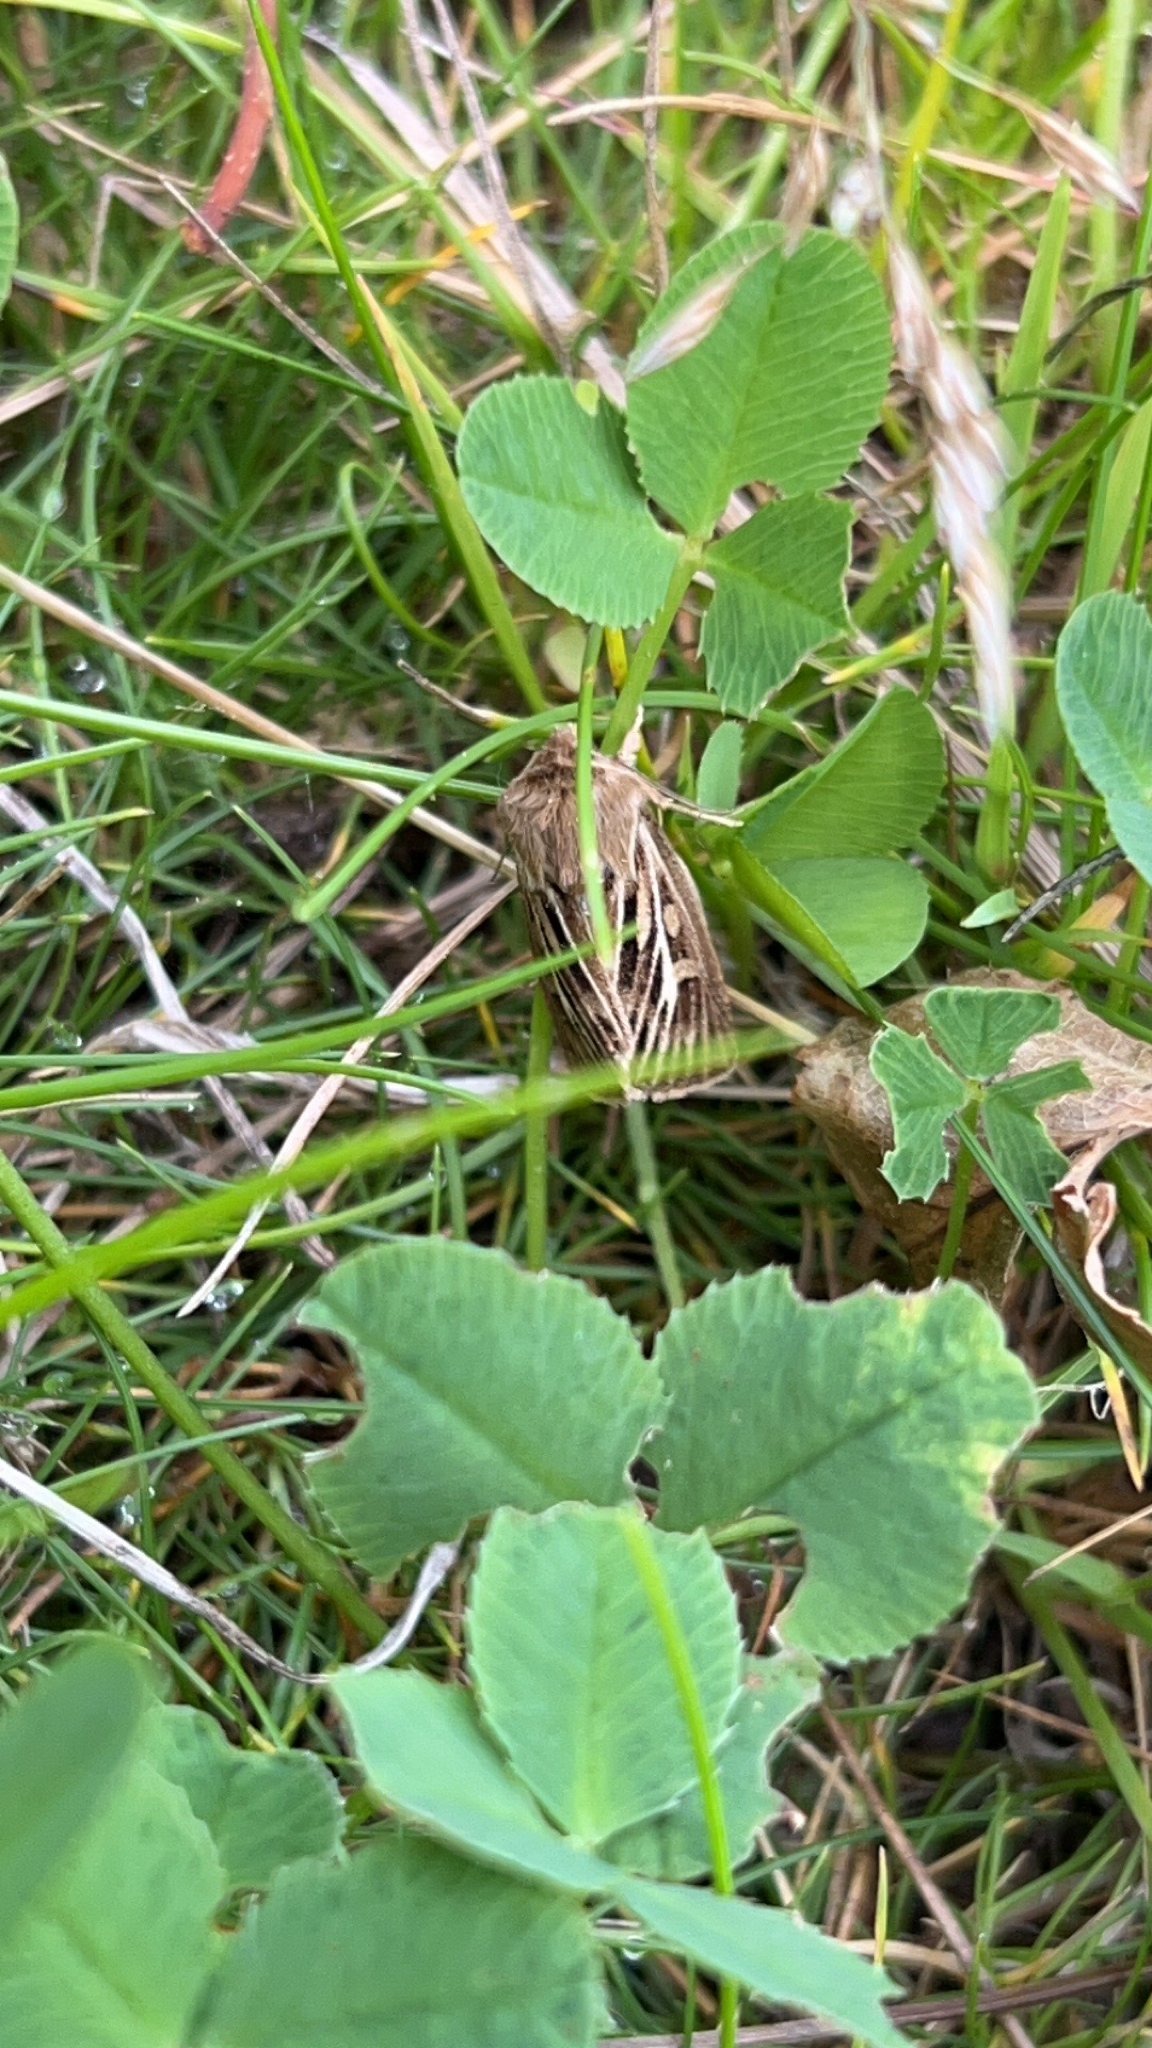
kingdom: Animalia
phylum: Arthropoda
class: Insecta
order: Lepidoptera
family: Noctuidae
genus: Cerapteryx
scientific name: Cerapteryx graminis
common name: Antler moth
